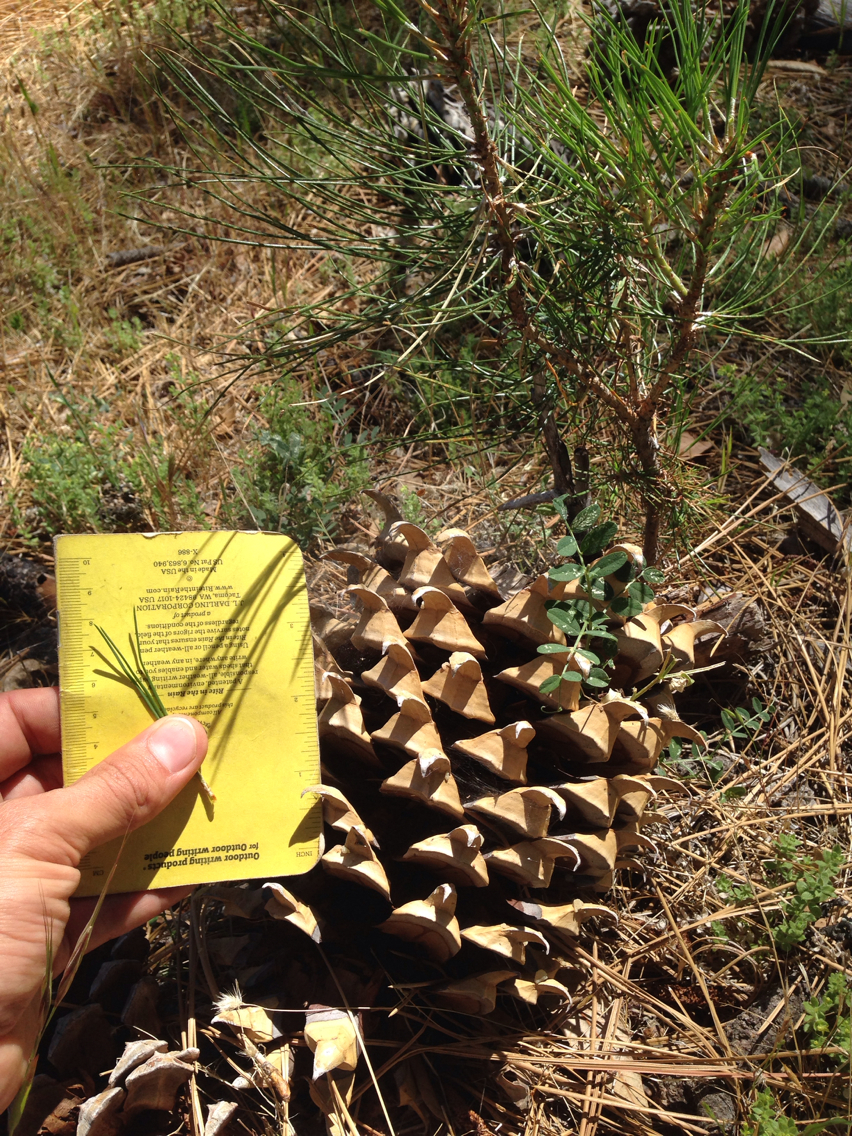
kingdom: Plantae
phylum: Tracheophyta
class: Pinopsida
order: Pinales
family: Pinaceae
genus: Pinus
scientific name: Pinus coulteri
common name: Coulter pine
